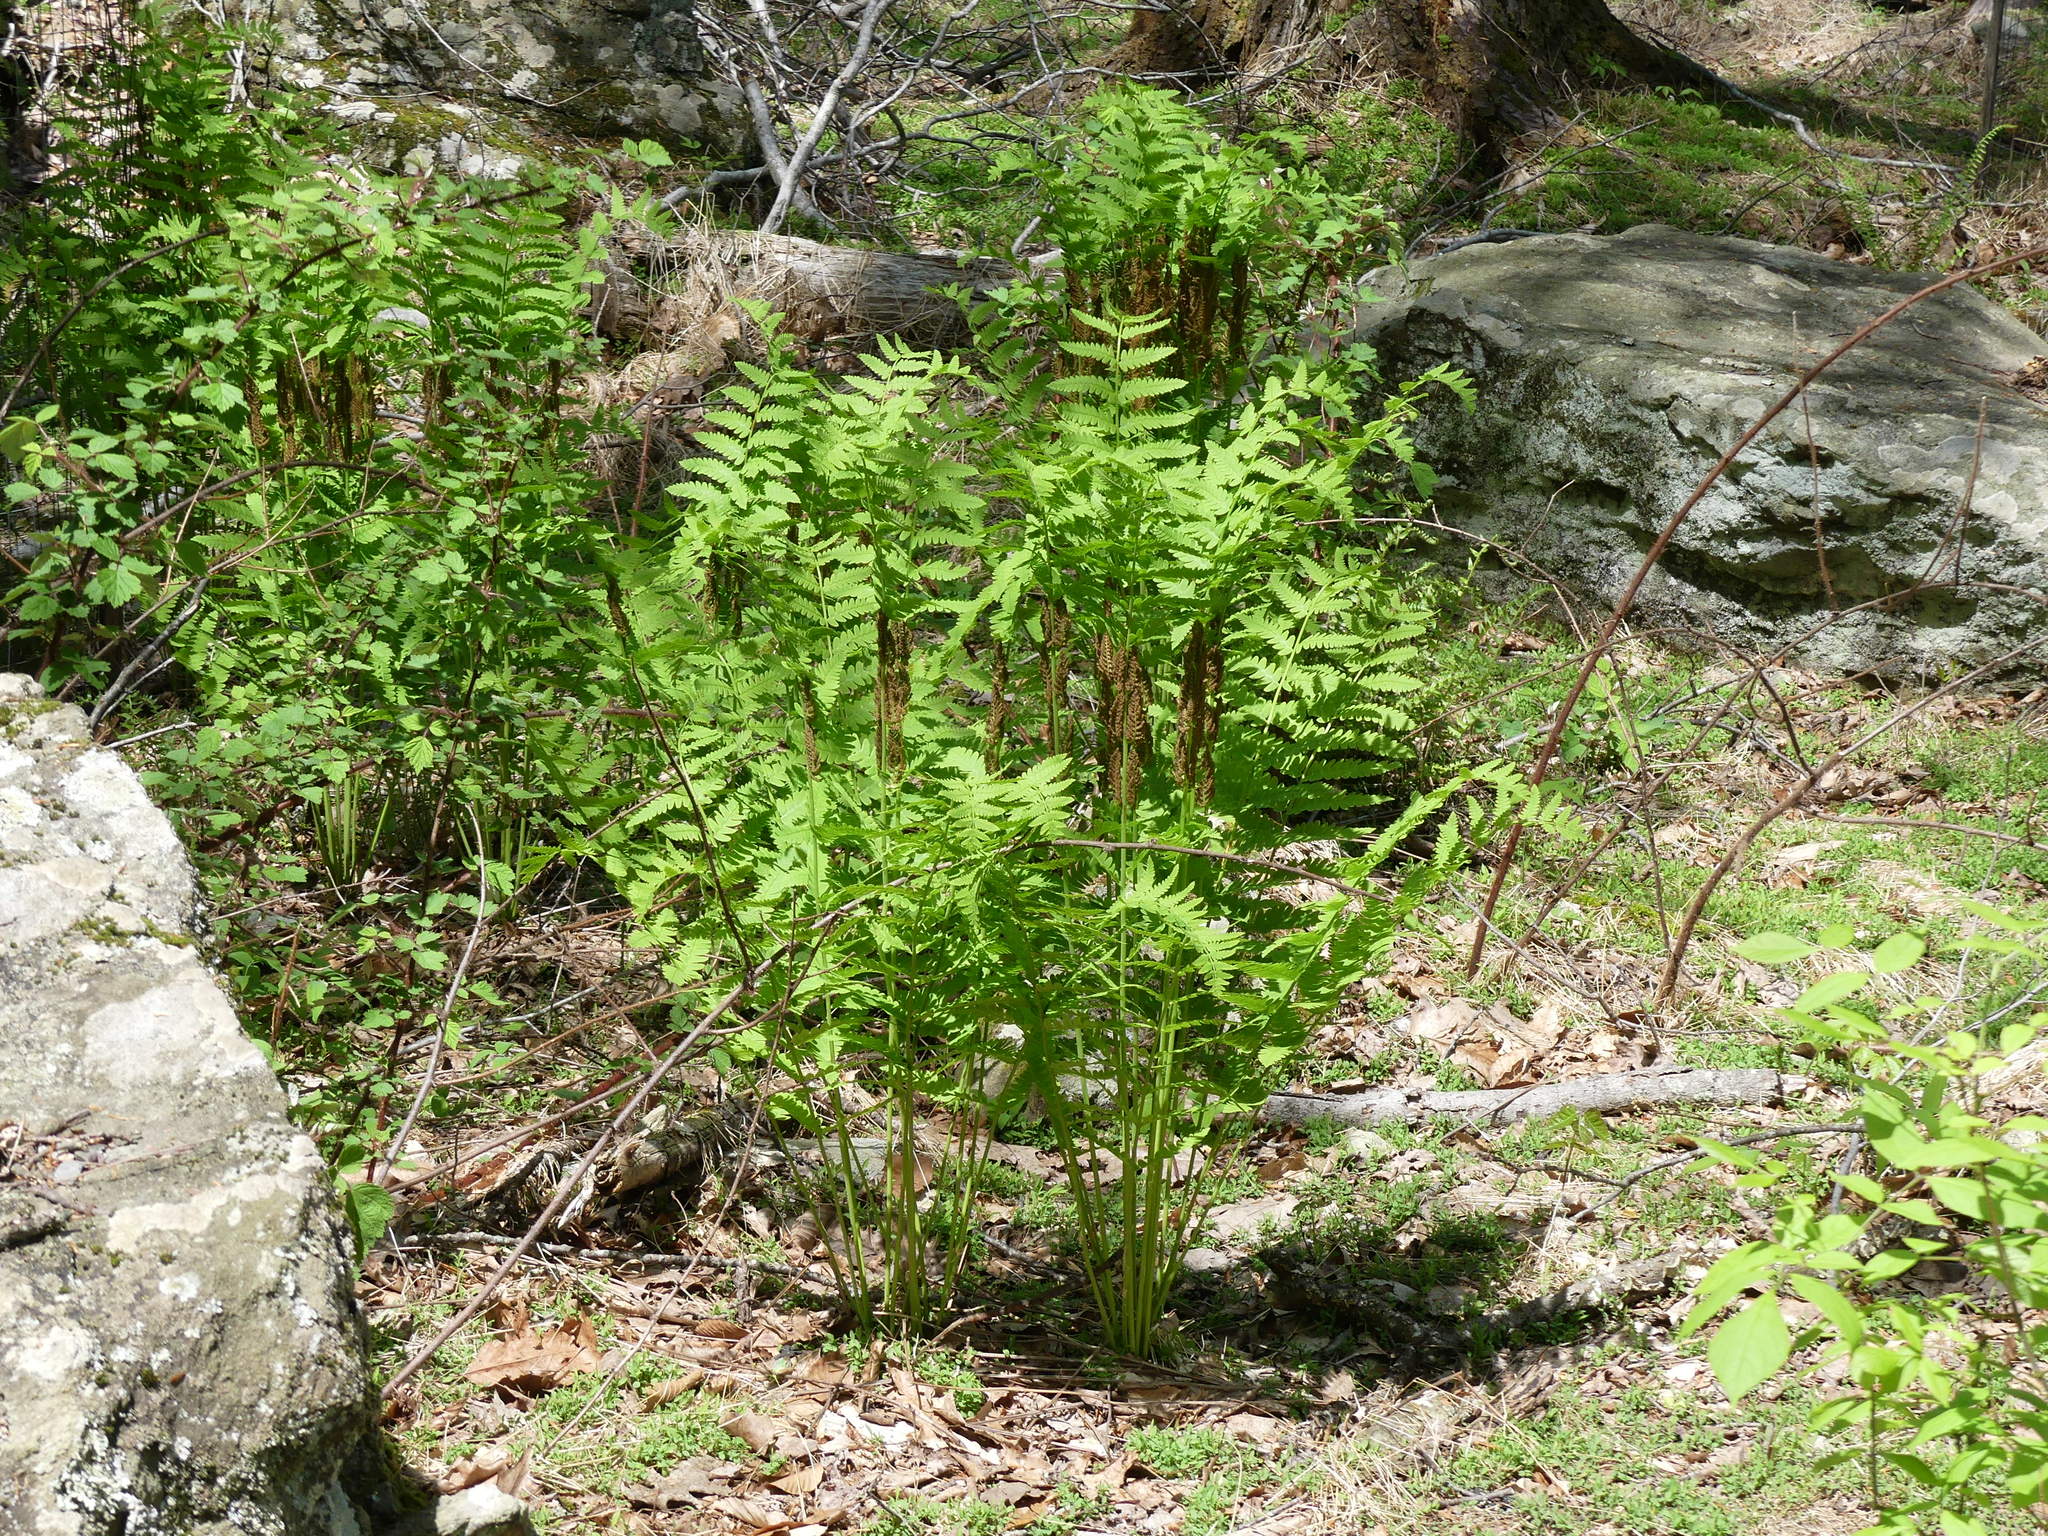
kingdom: Plantae
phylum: Tracheophyta
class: Polypodiopsida
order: Osmundales
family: Osmundaceae
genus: Claytosmunda
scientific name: Claytosmunda claytoniana
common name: Clayton's fern
